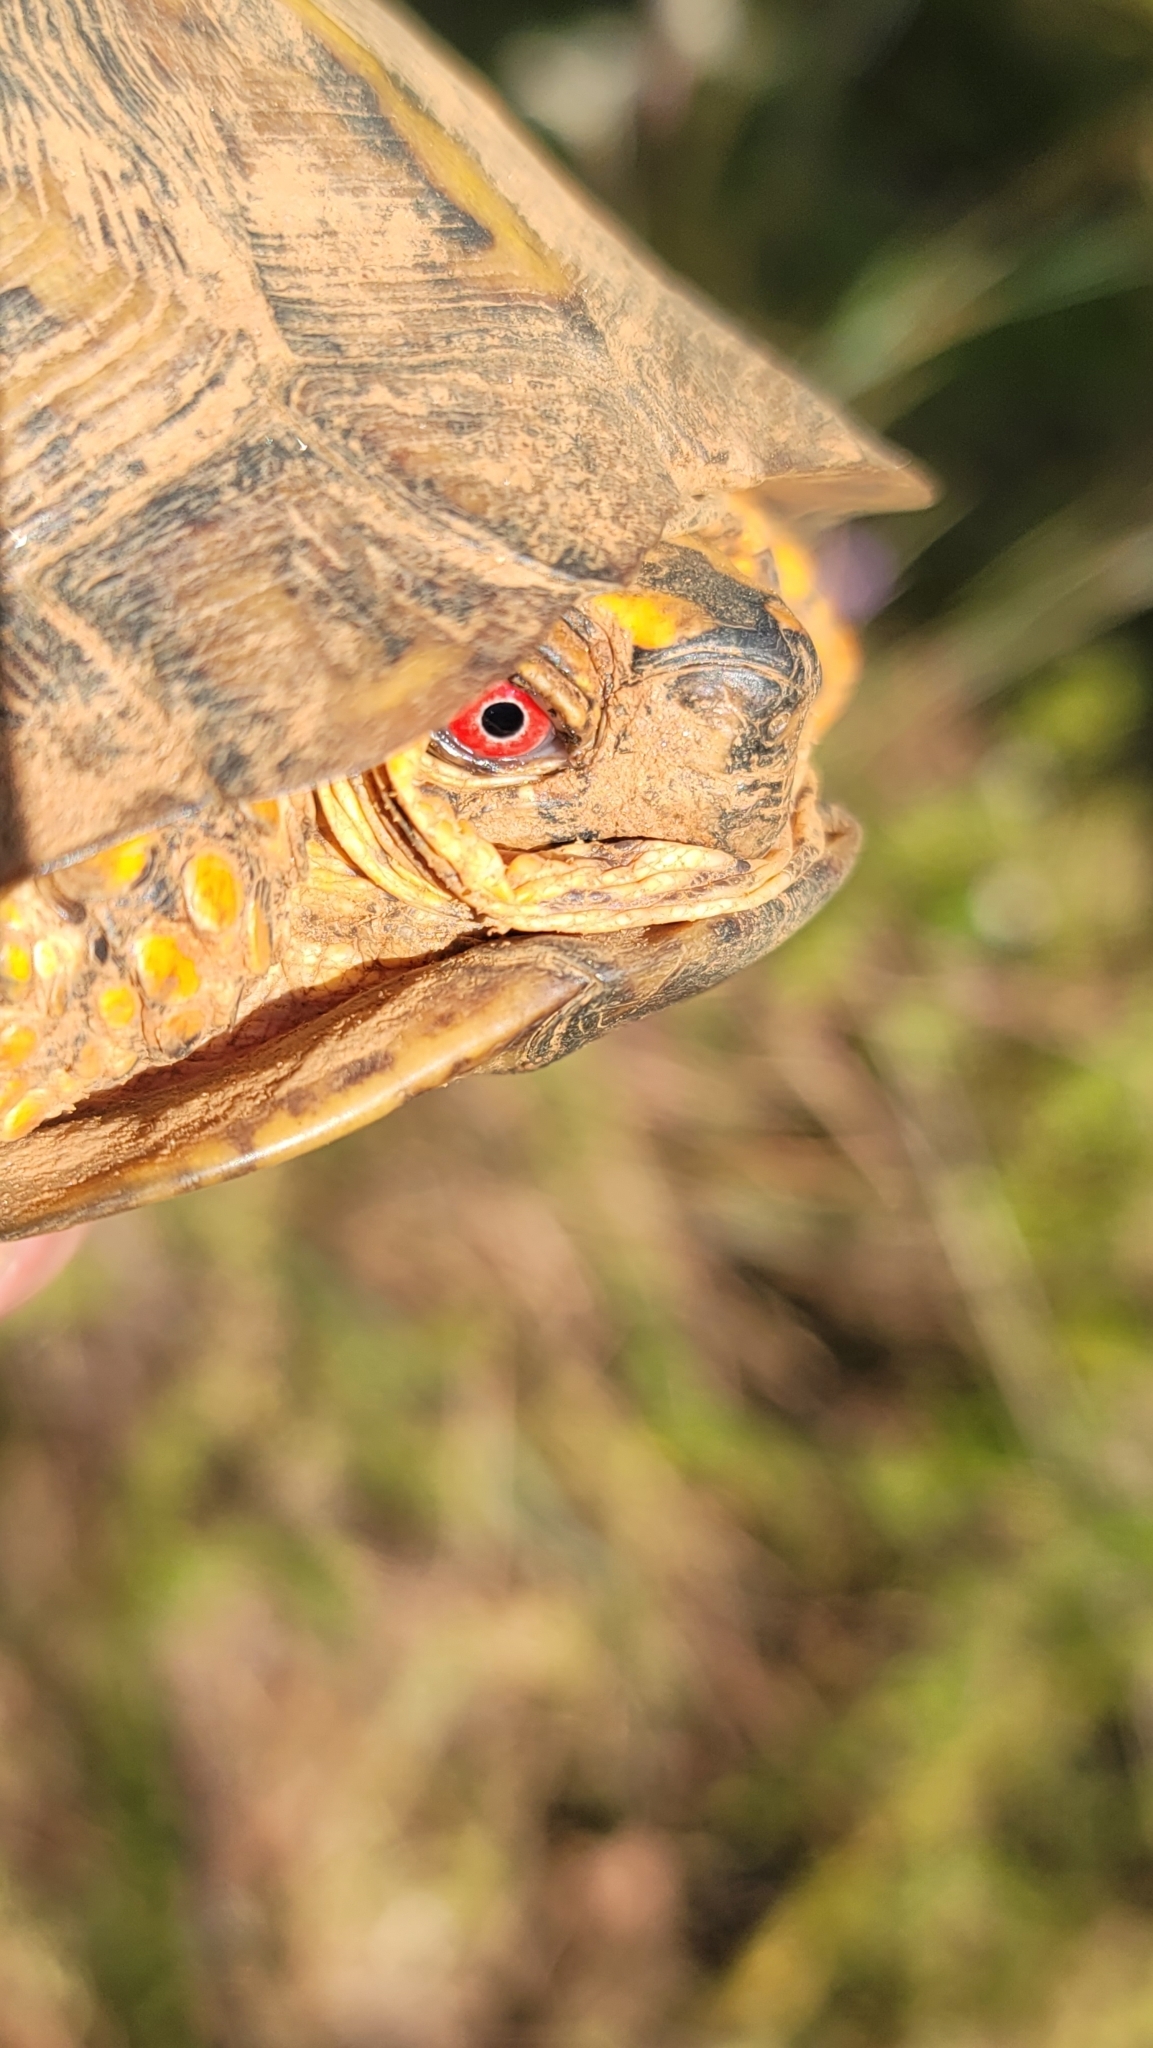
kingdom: Animalia
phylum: Chordata
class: Testudines
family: Emydidae
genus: Terrapene
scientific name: Terrapene carolina
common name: Common box turtle
